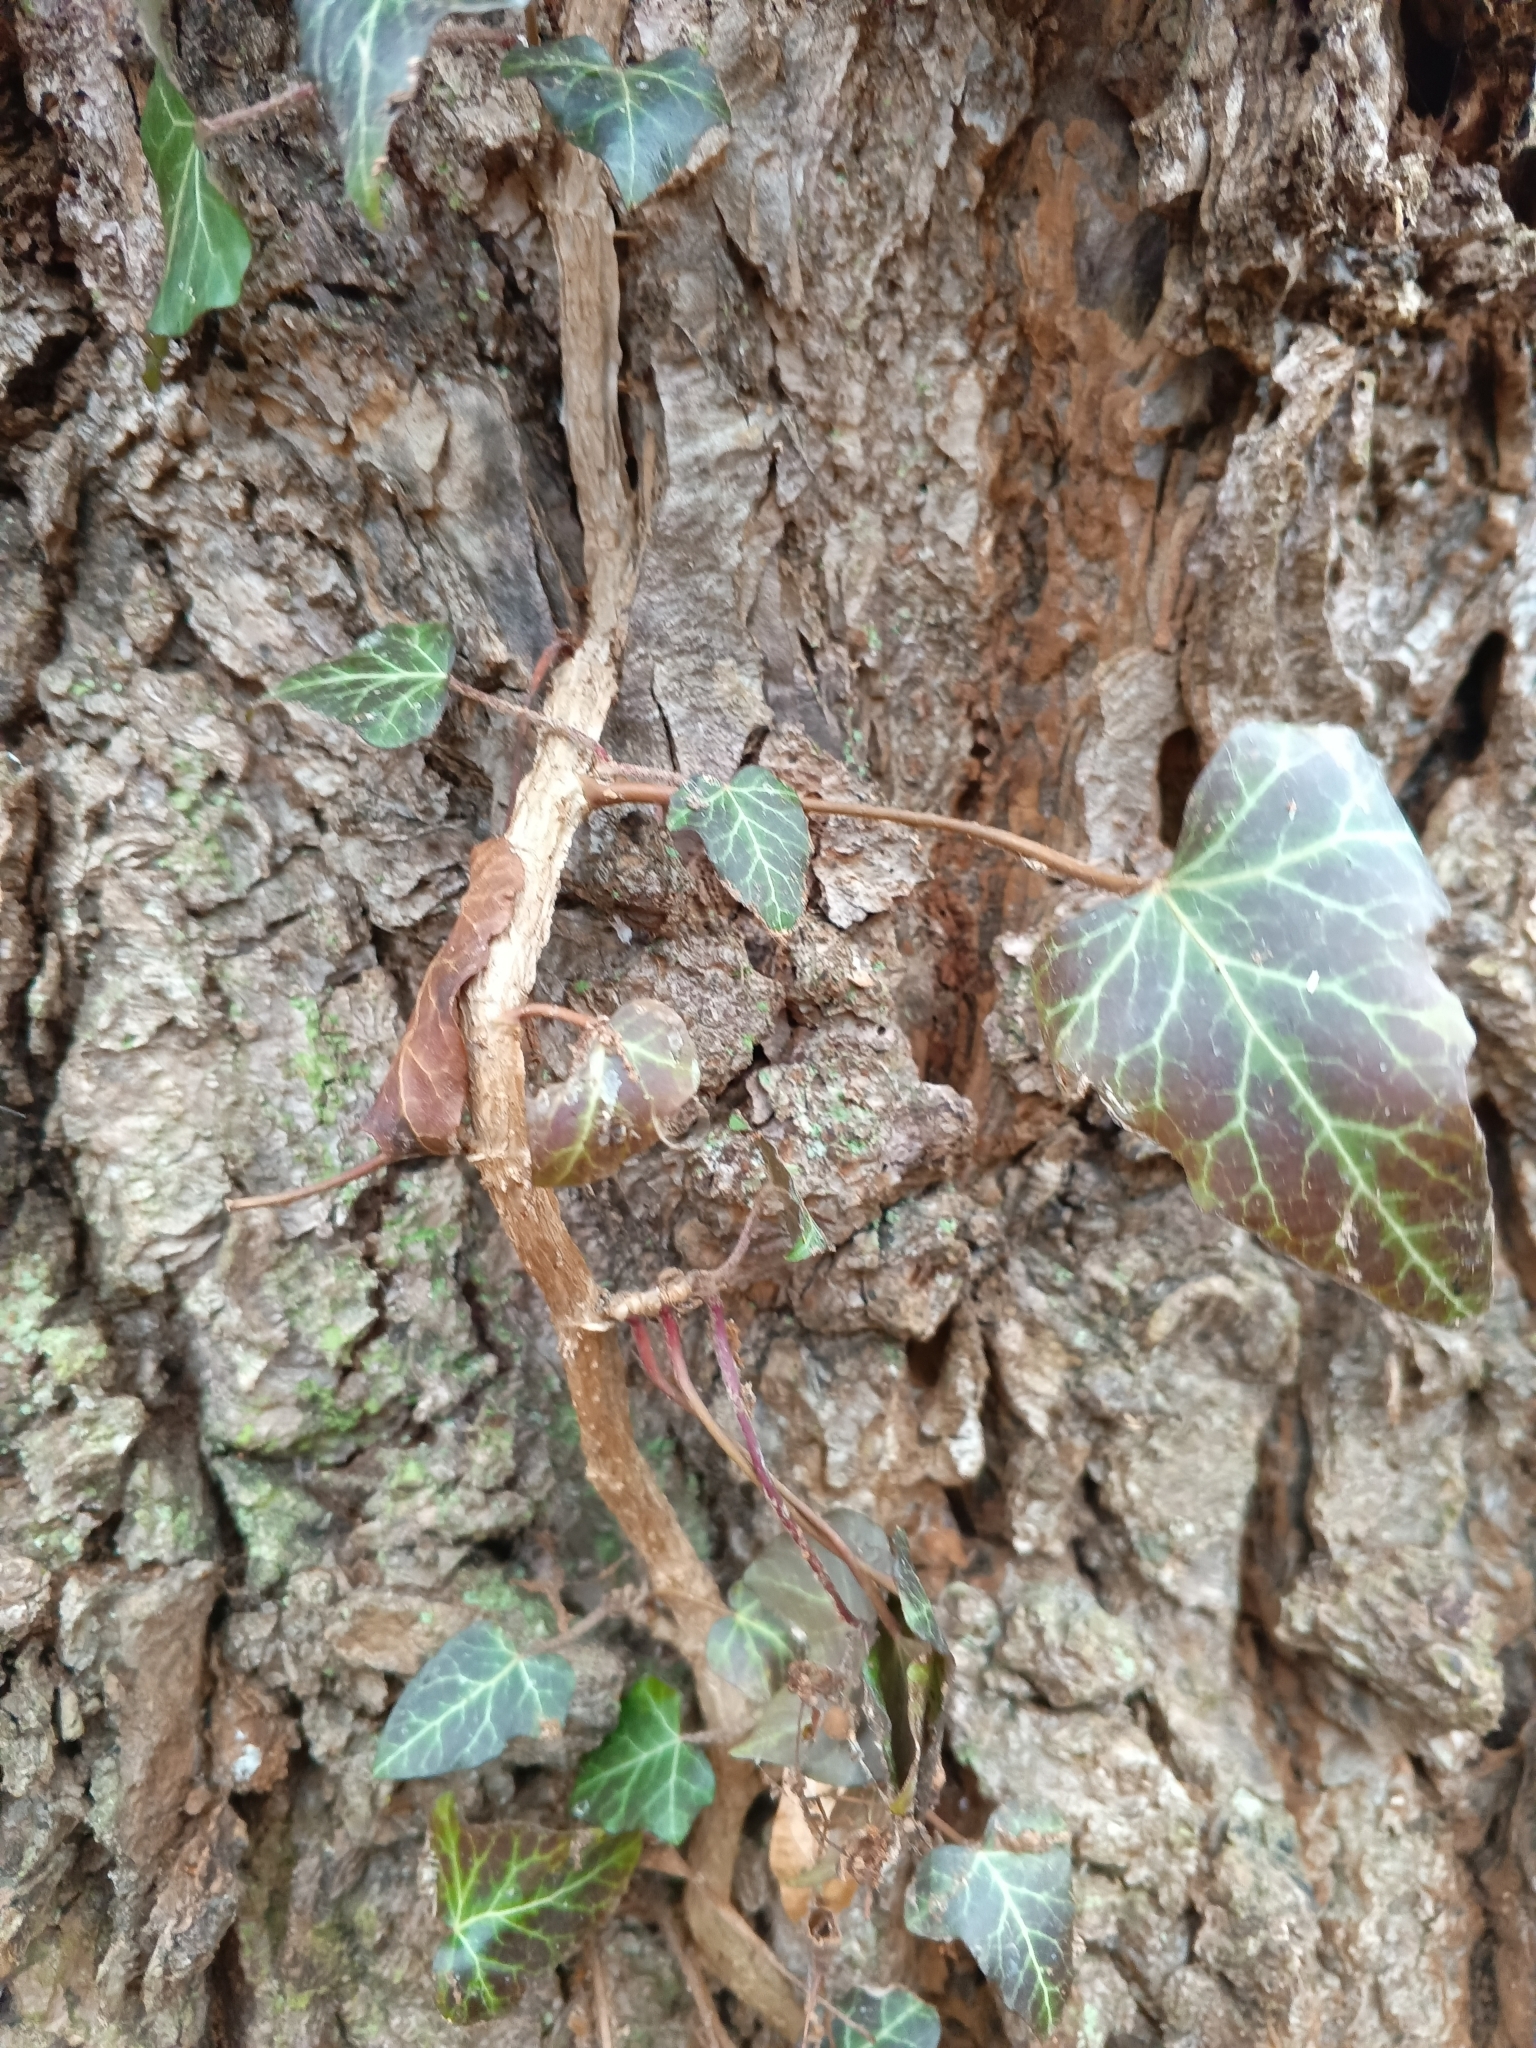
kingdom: Plantae
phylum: Tracheophyta
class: Magnoliopsida
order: Apiales
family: Araliaceae
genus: Hedera
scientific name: Hedera helix
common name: Ivy
